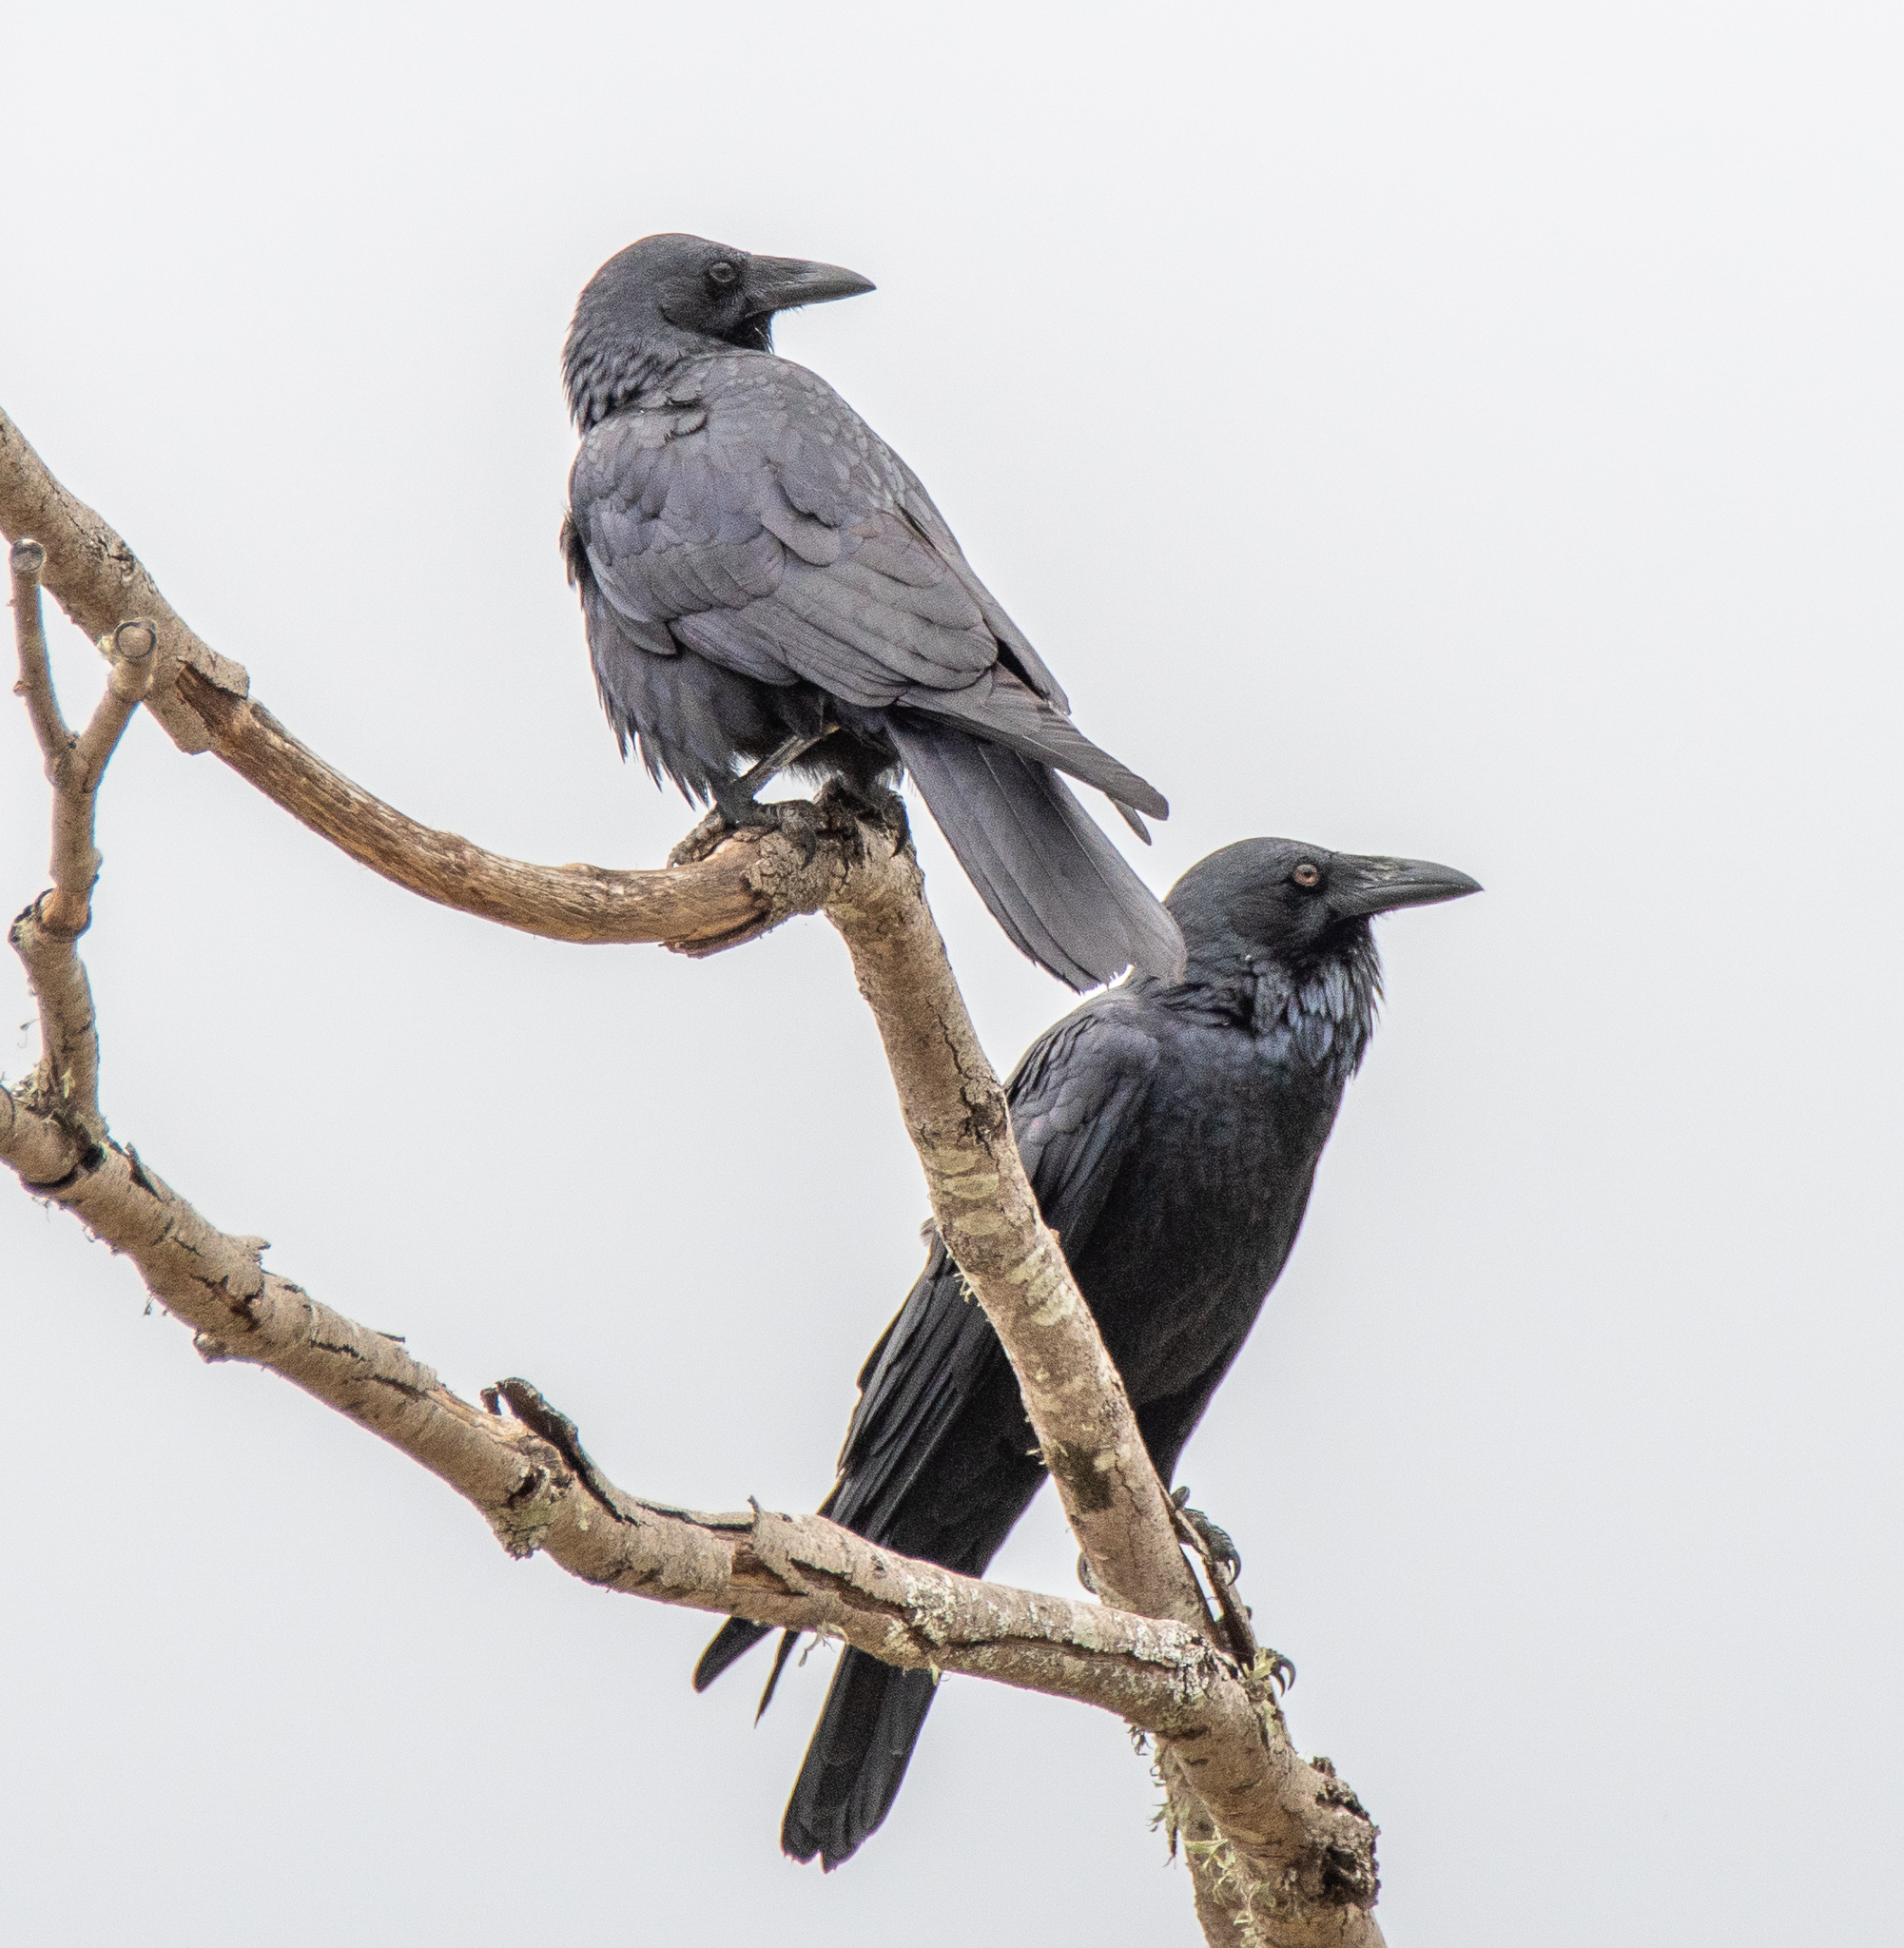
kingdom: Animalia
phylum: Chordata
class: Aves
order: Passeriformes
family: Corvidae
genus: Corvus
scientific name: Corvus coronoides
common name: Australian raven
